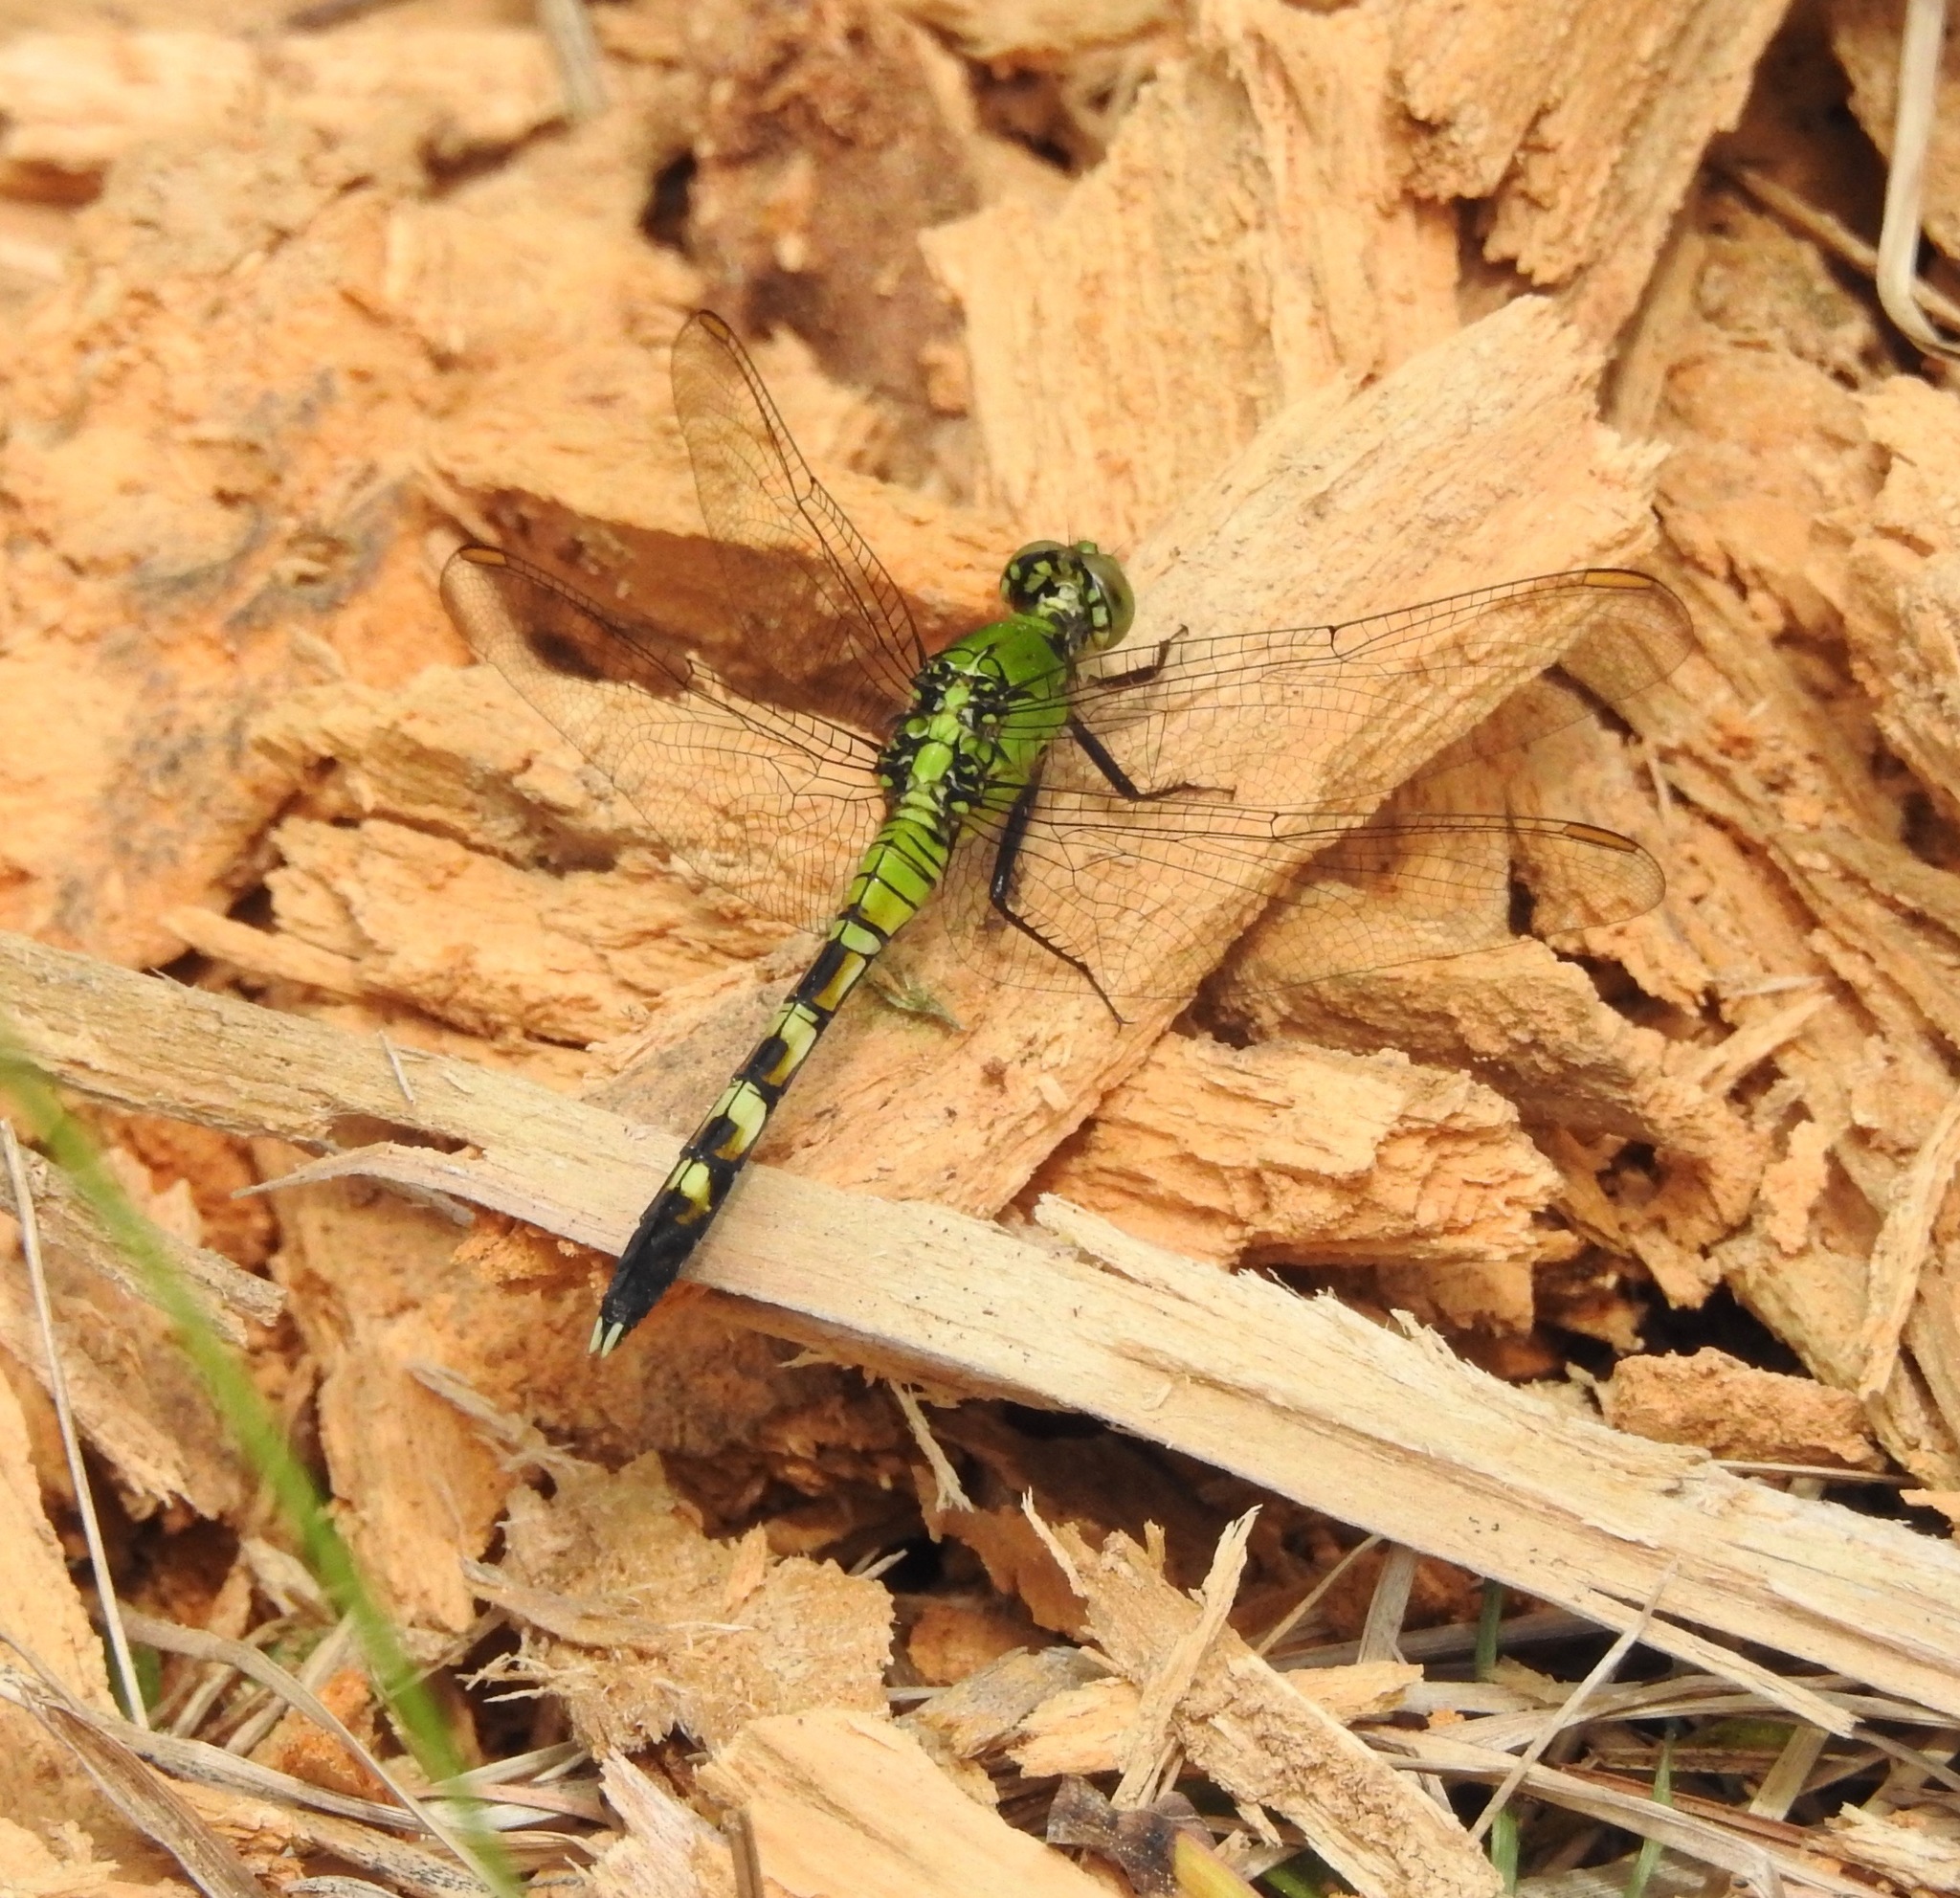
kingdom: Animalia
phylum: Arthropoda
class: Insecta
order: Odonata
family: Libellulidae
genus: Erythemis
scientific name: Erythemis simplicicollis
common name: Eastern pondhawk
